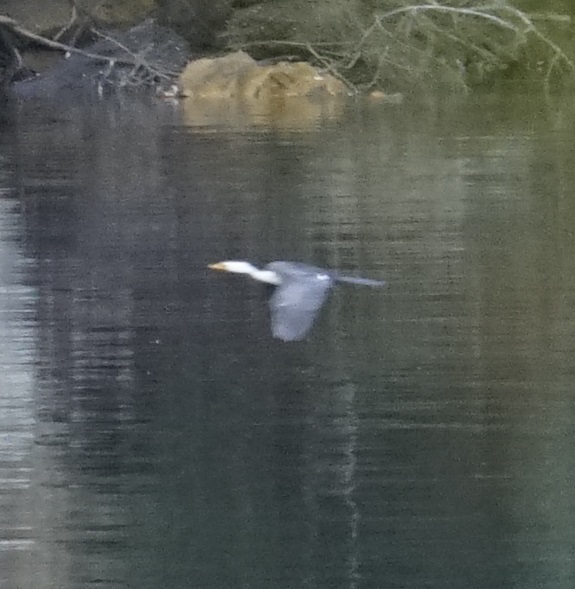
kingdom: Animalia
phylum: Chordata
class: Aves
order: Suliformes
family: Phalacrocoracidae
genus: Microcarbo
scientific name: Microcarbo melanoleucos
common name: Little pied cormorant
